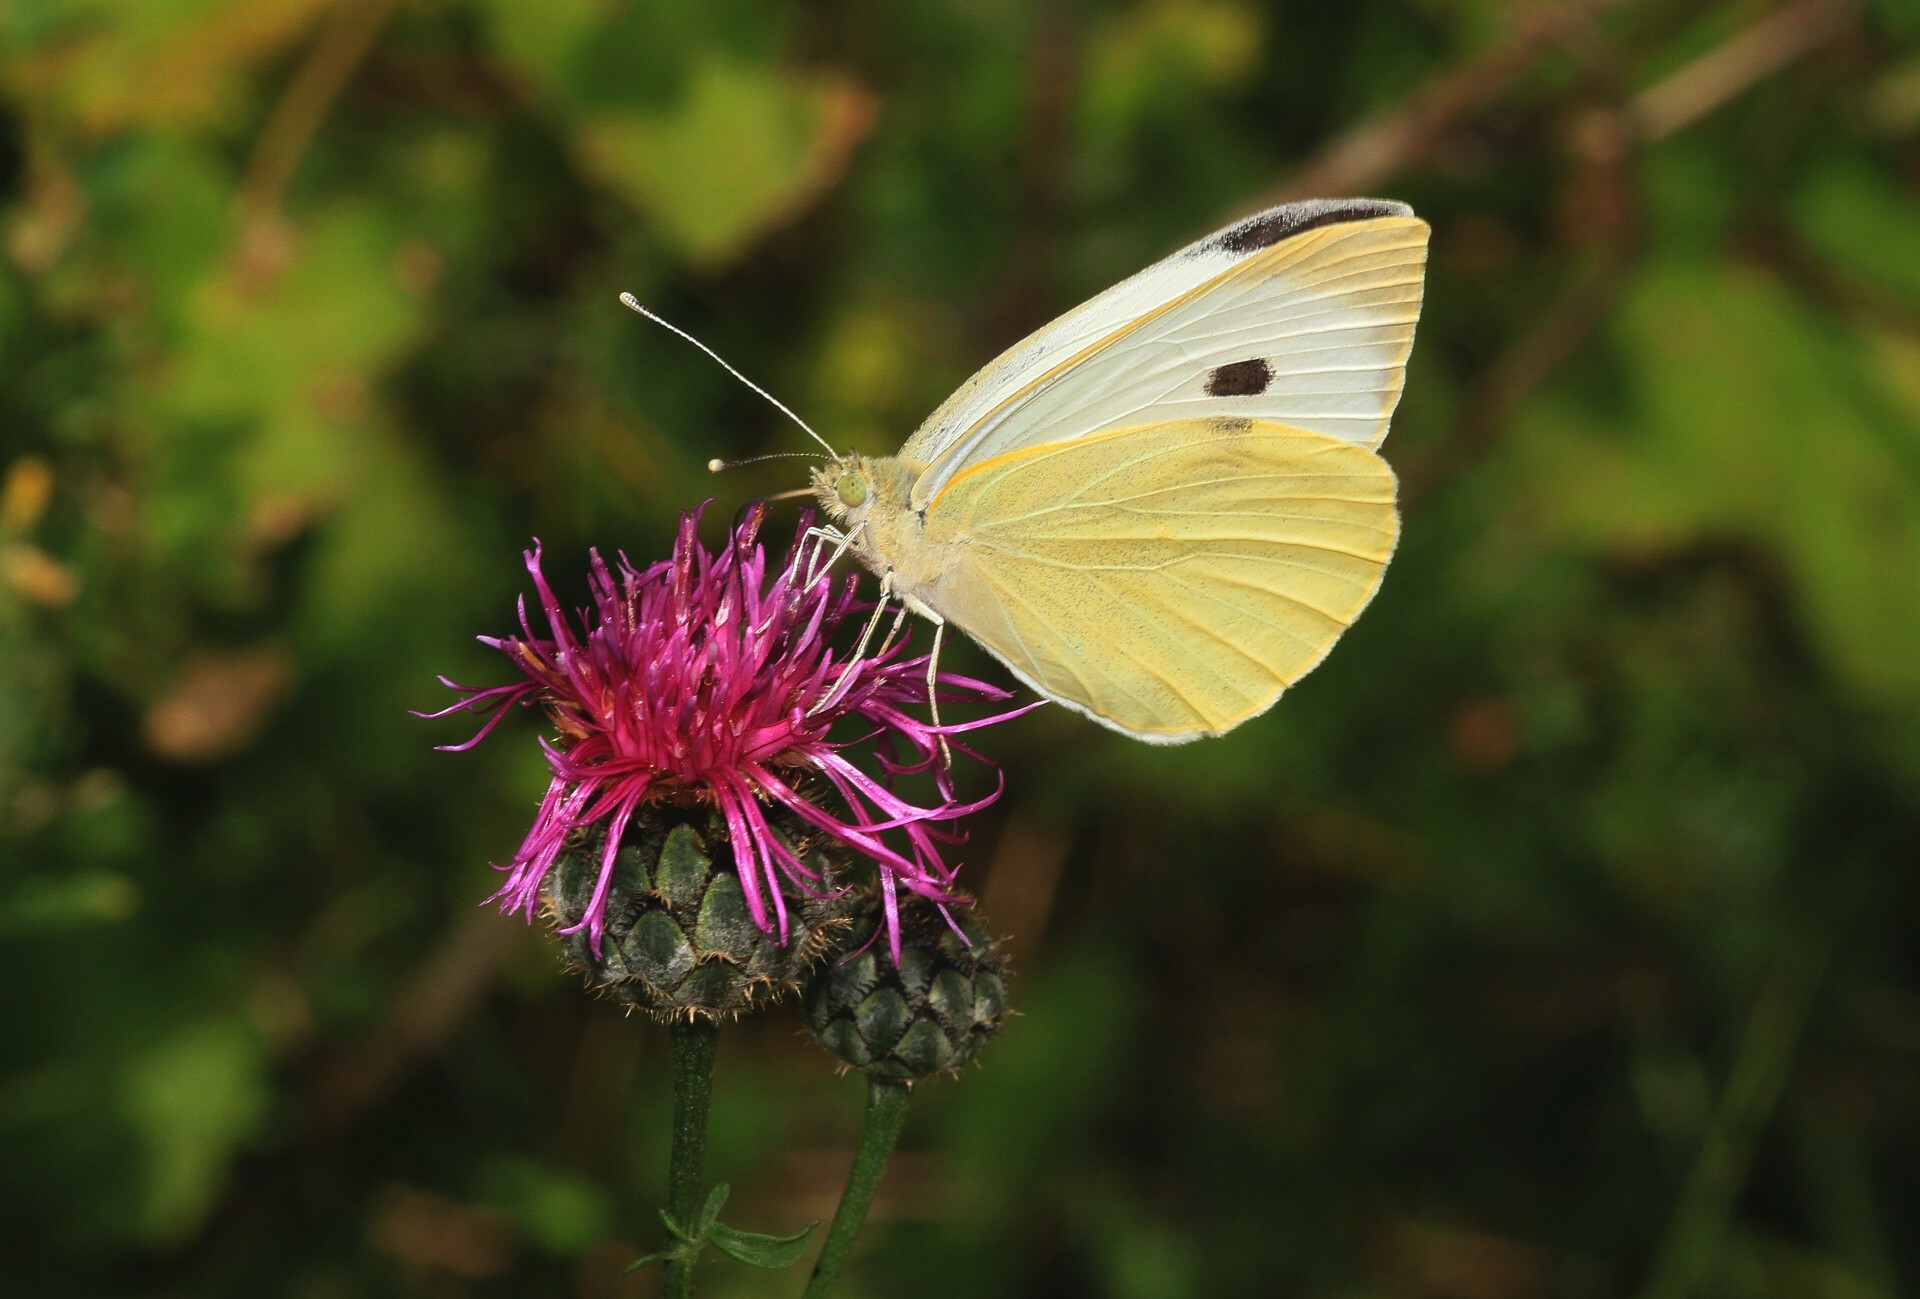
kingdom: Animalia
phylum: Arthropoda
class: Insecta
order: Lepidoptera
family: Pieridae
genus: Pieris
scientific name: Pieris brassicae
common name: Large white
